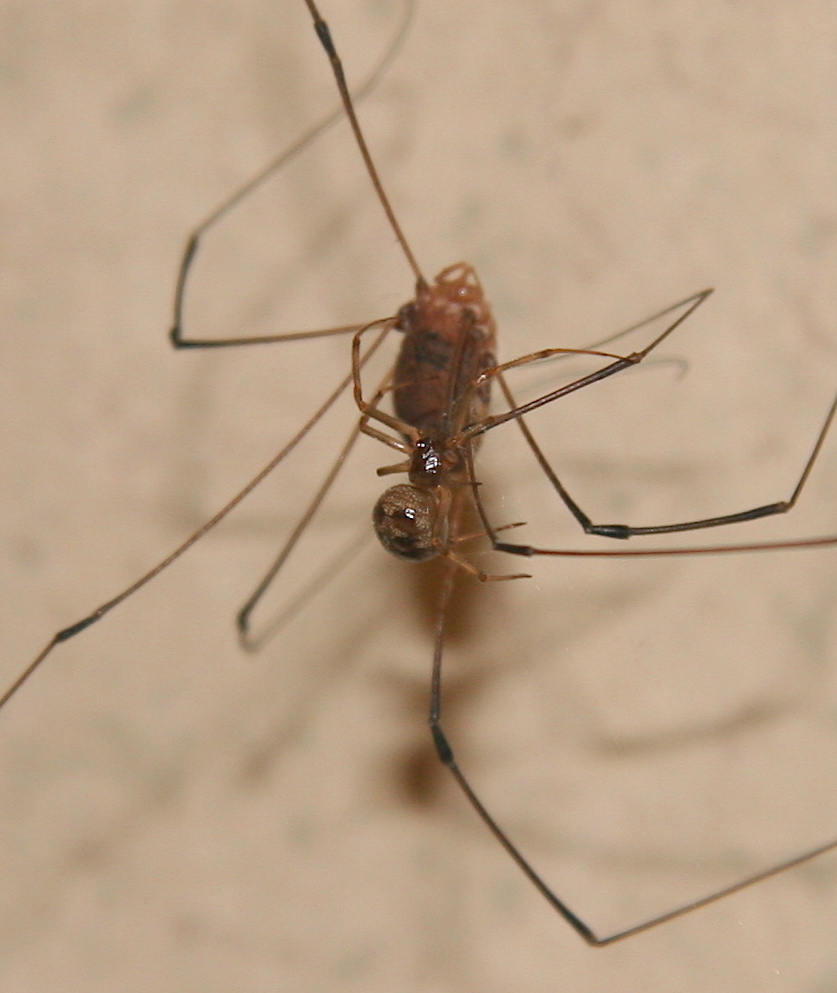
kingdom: Animalia
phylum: Arthropoda
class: Arachnida
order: Araneae
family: Theridiidae
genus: Steatoda
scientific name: Steatoda triangulosa
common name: Triangulate bud spider
